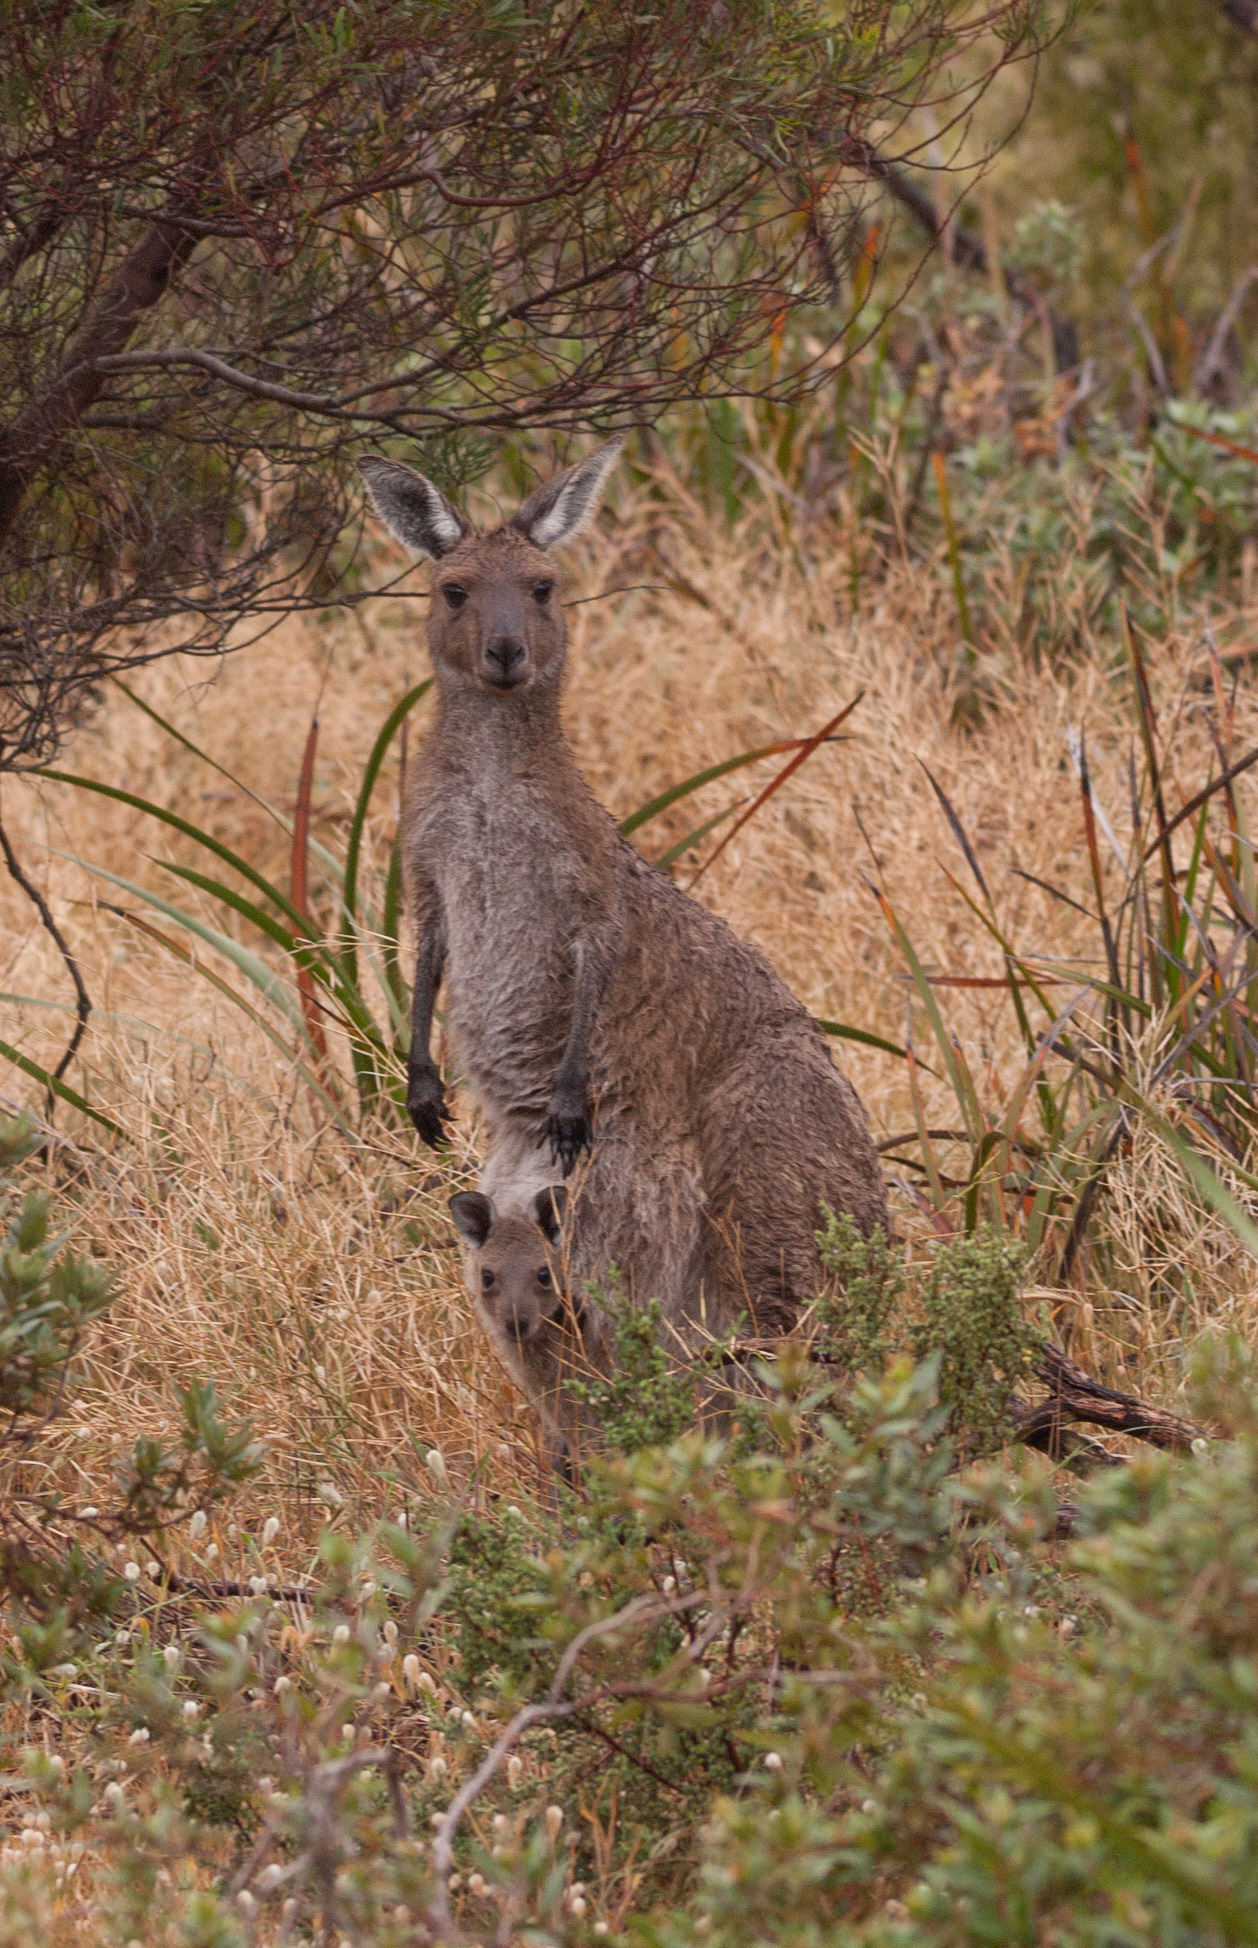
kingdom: Animalia
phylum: Chordata
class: Mammalia
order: Diprotodontia
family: Macropodidae
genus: Macropus
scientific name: Macropus fuliginosus
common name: Western grey kangaroo
